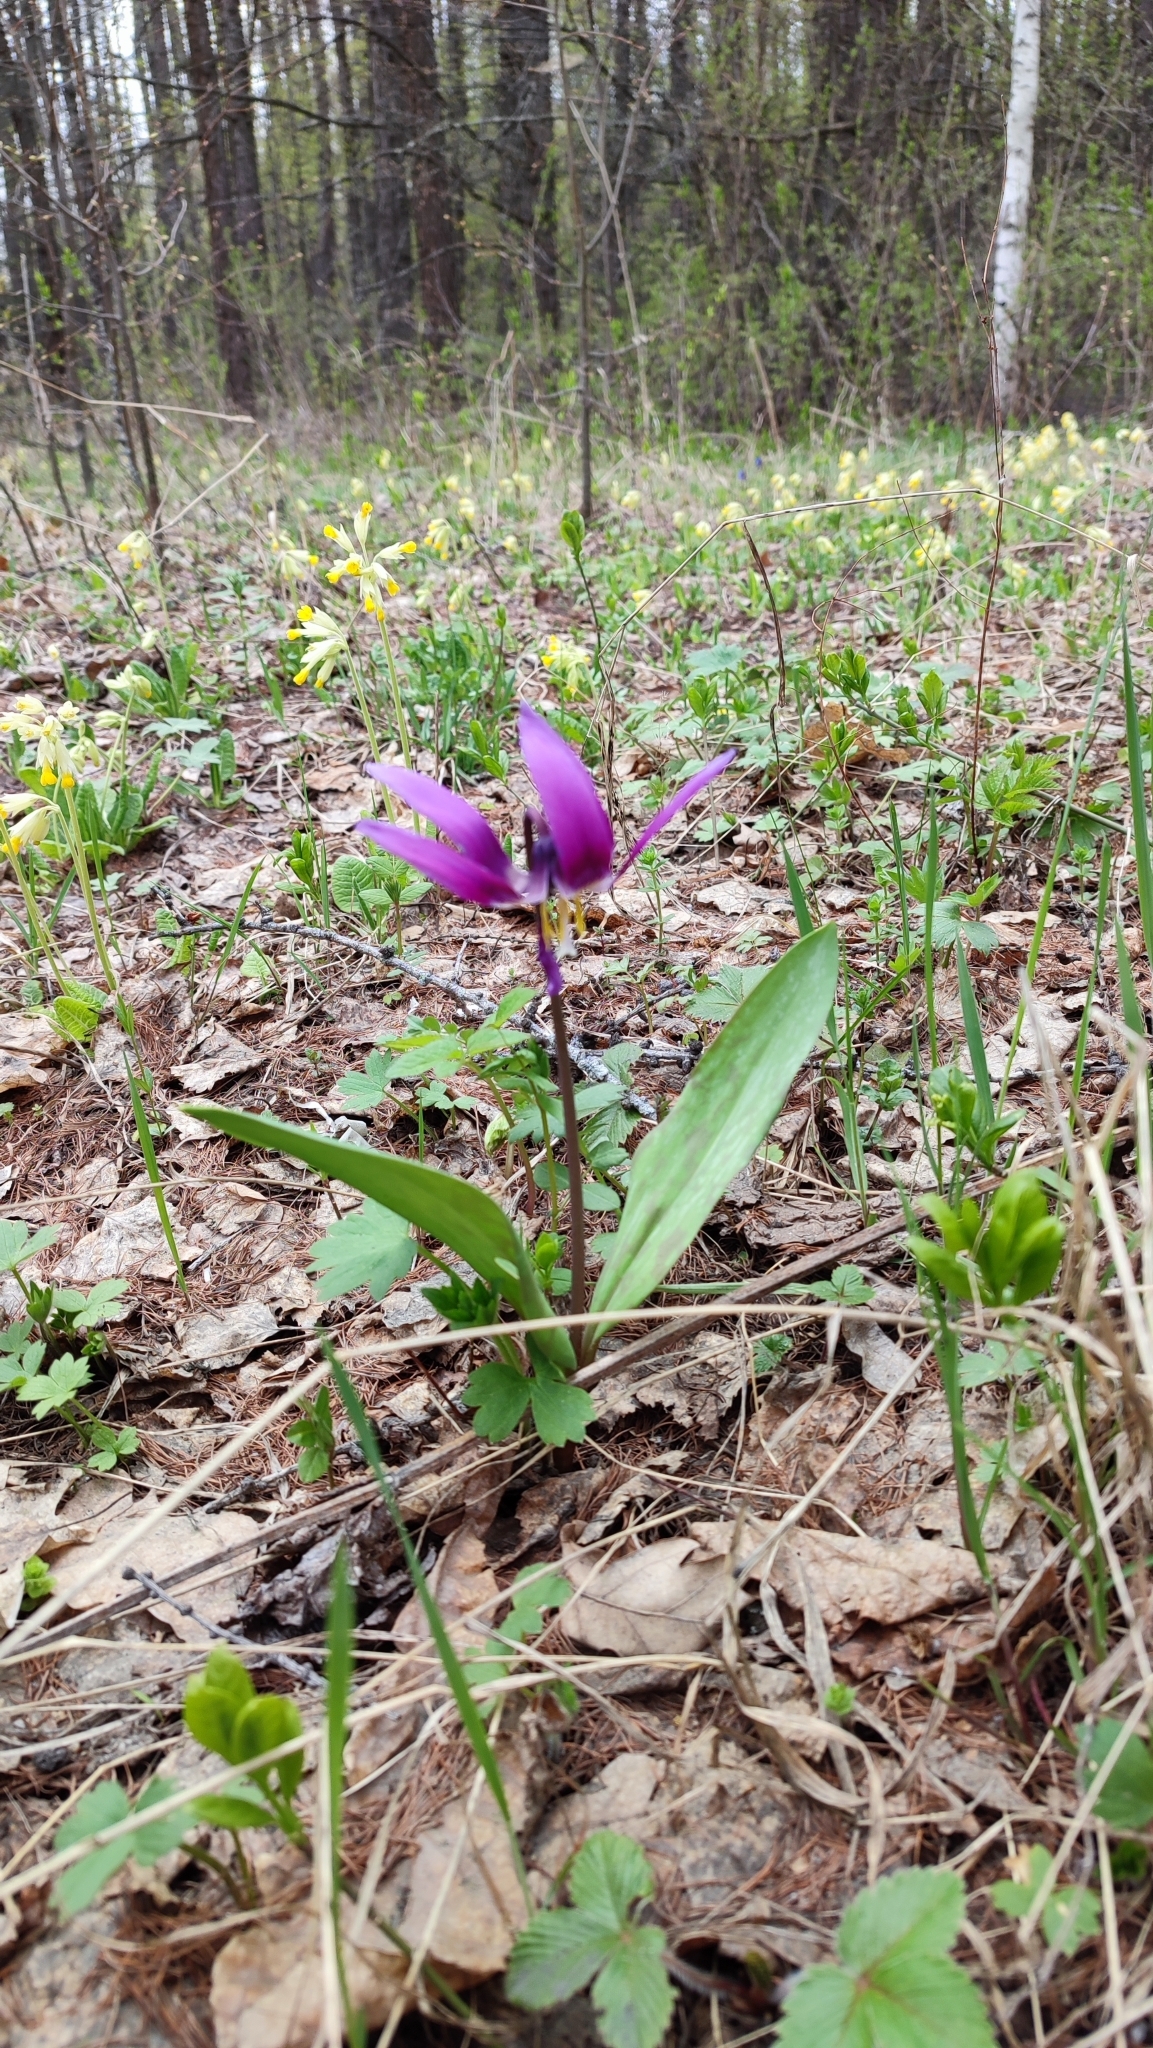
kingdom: Plantae
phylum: Tracheophyta
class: Liliopsida
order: Liliales
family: Liliaceae
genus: Erythronium
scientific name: Erythronium sibiricum
